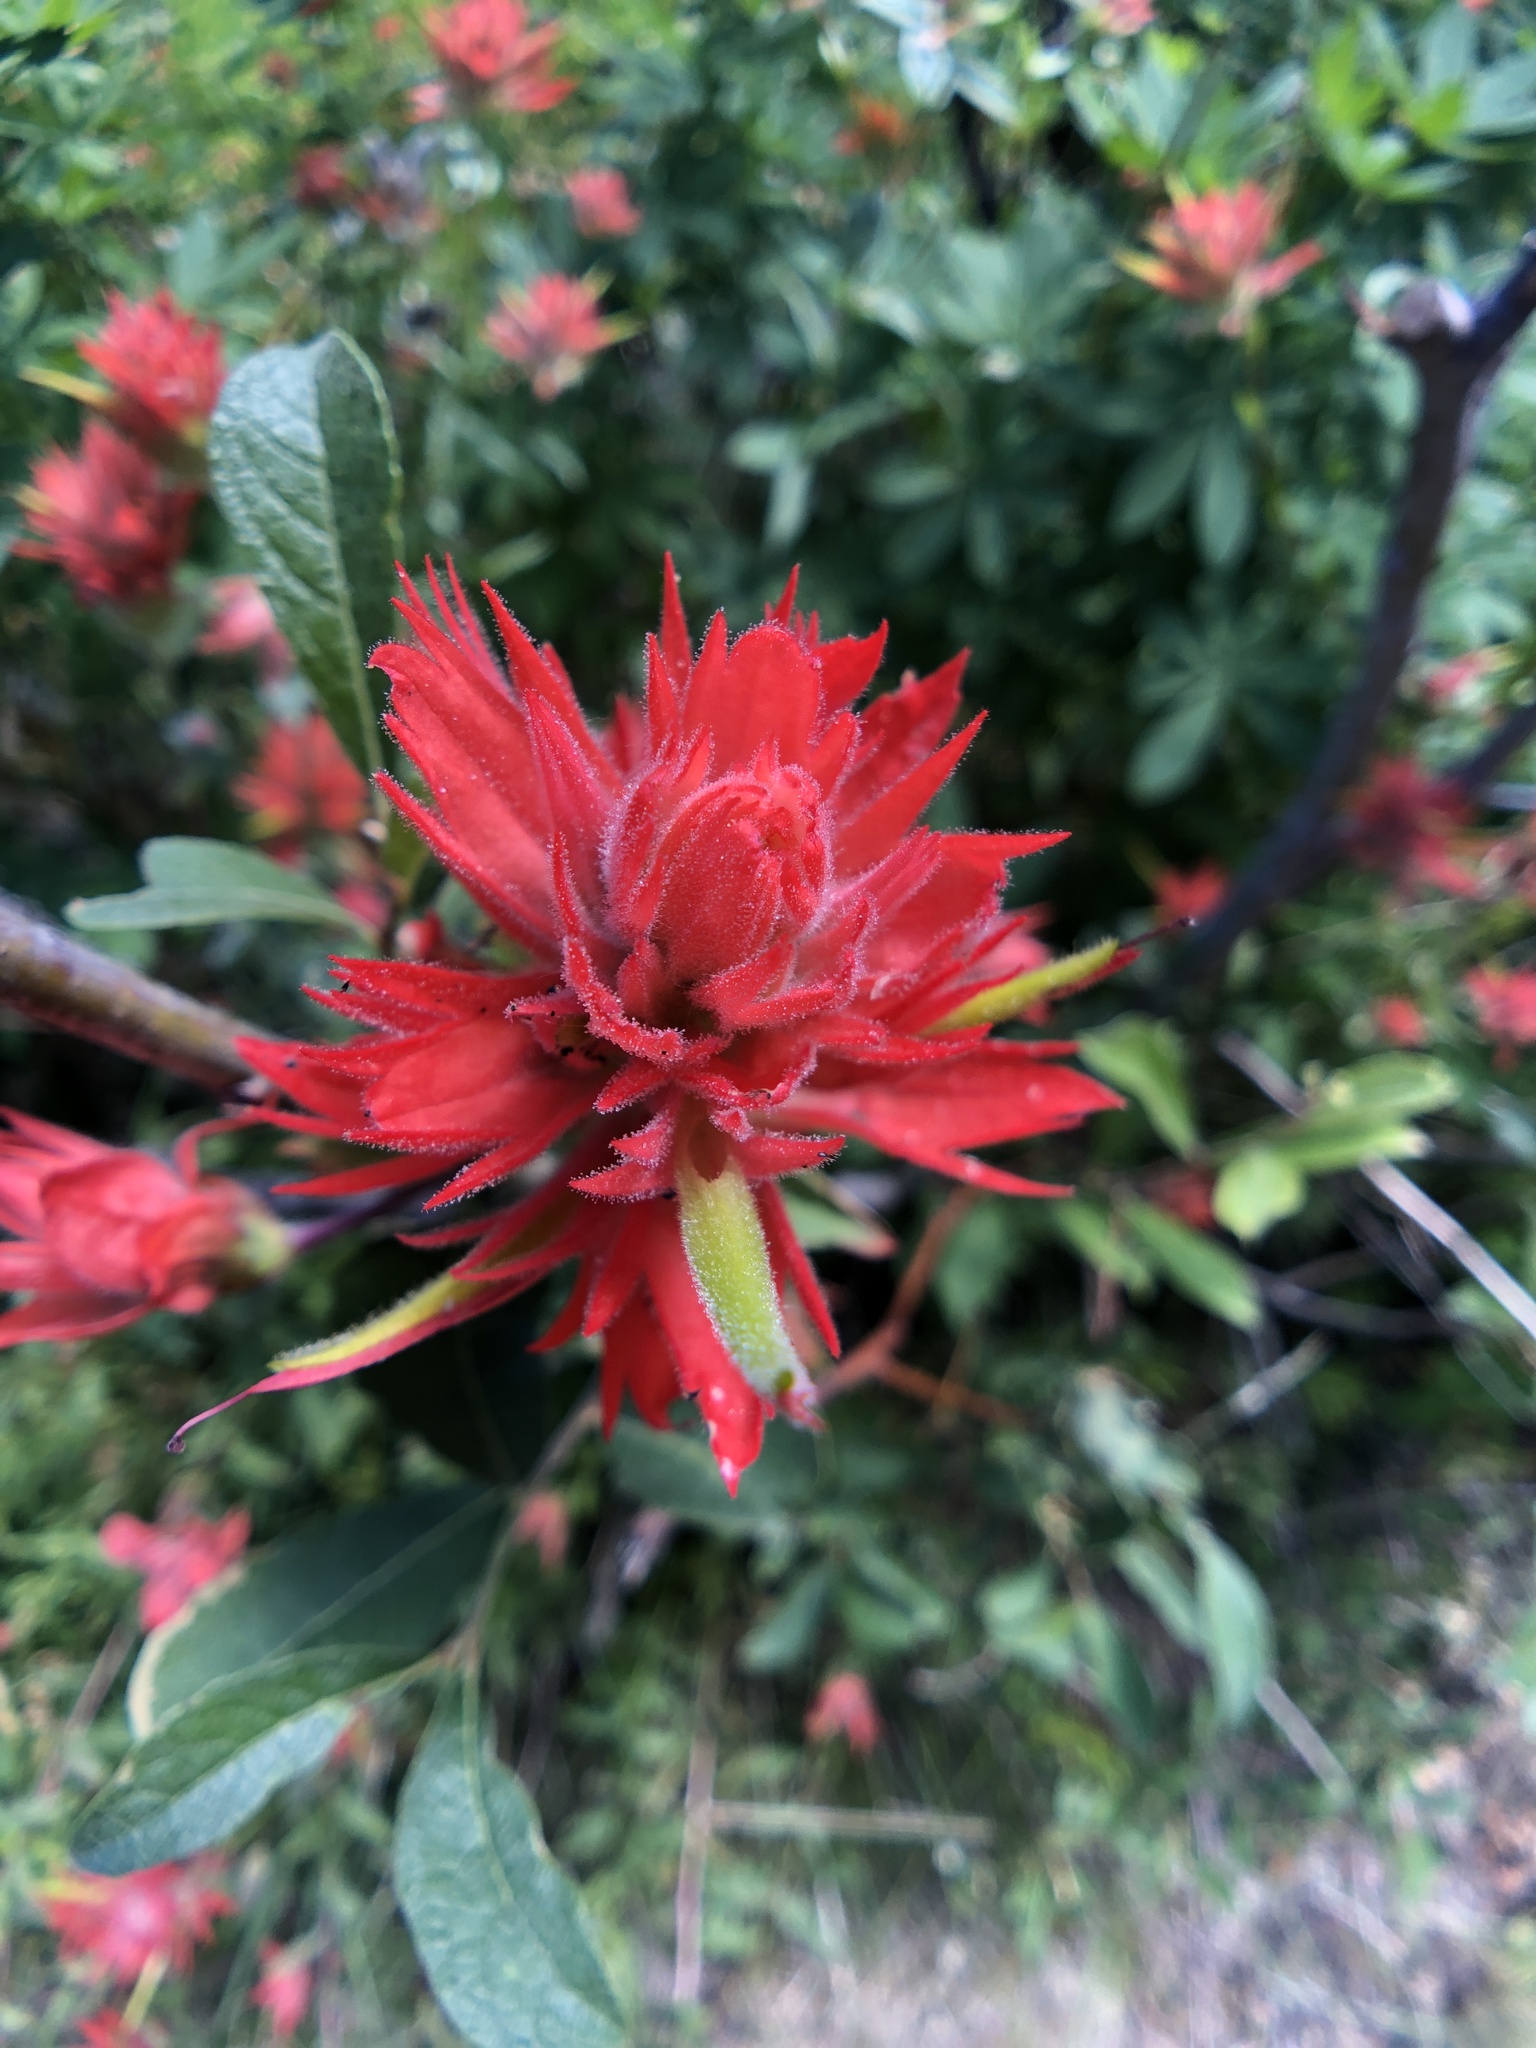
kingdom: Plantae
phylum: Tracheophyta
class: Magnoliopsida
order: Lamiales
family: Orobanchaceae
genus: Castilleja
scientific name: Castilleja miniata
